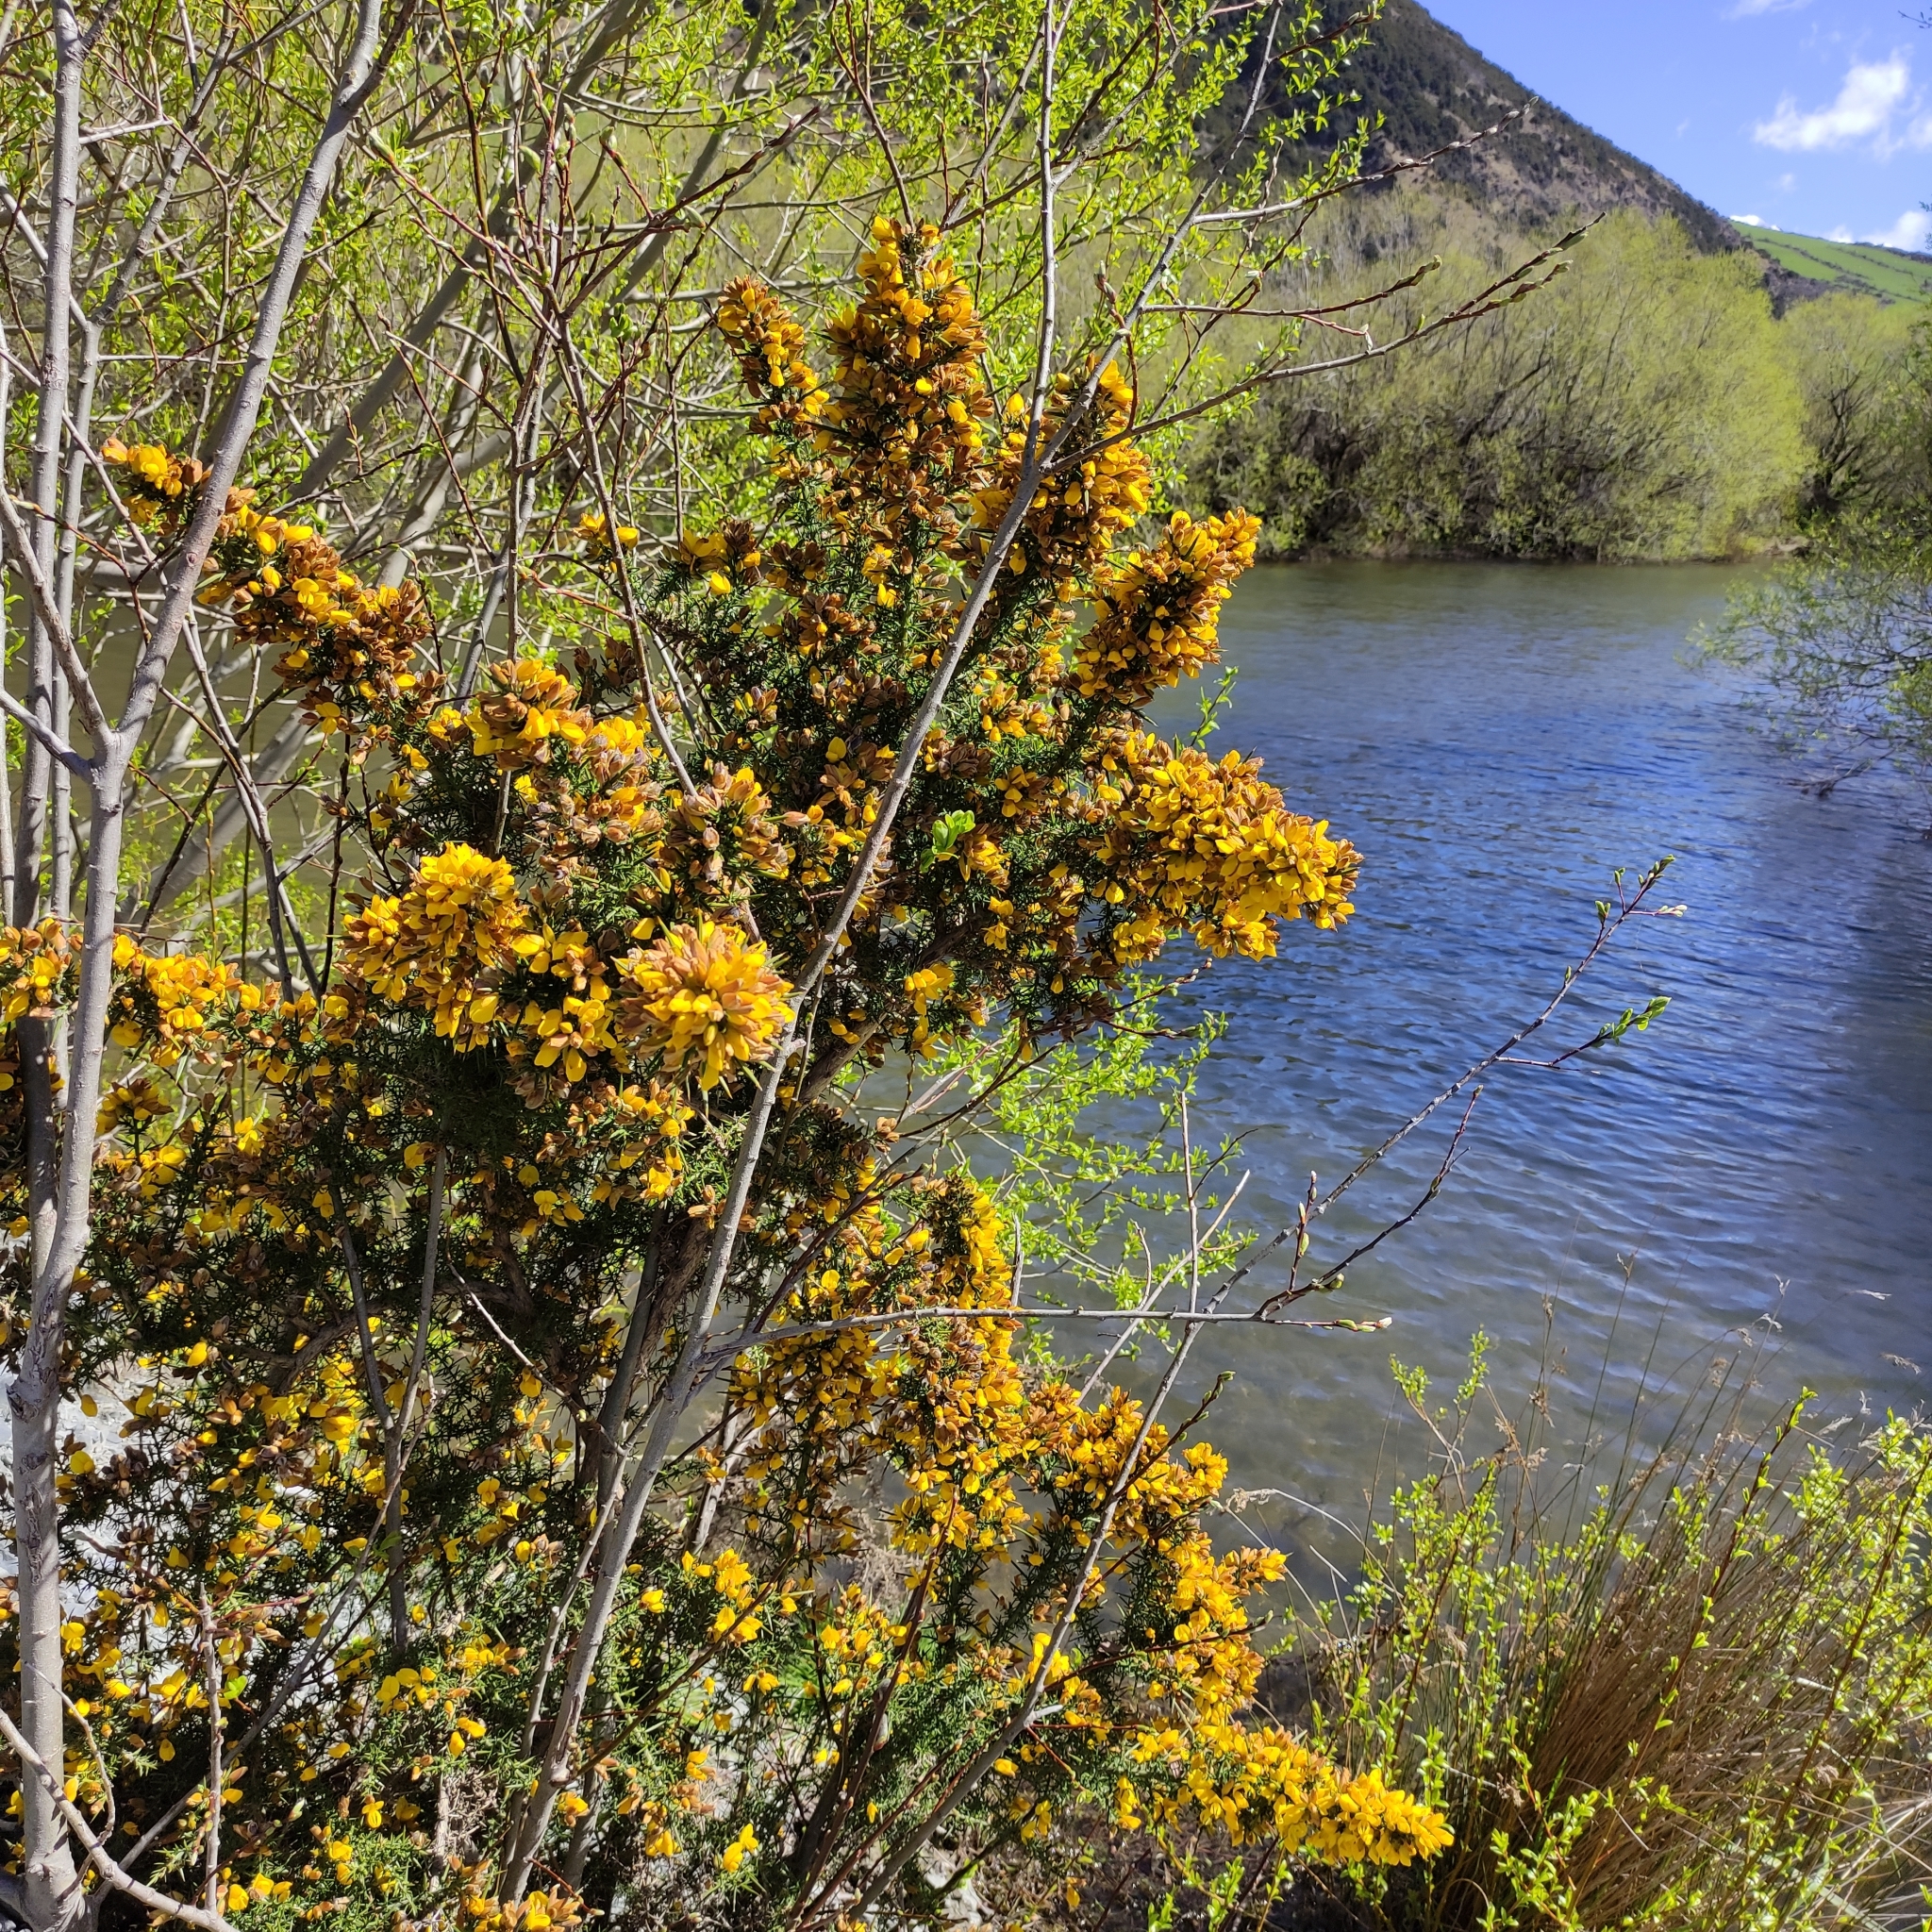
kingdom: Plantae
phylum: Tracheophyta
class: Magnoliopsida
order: Fabales
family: Fabaceae
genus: Ulex
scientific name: Ulex europaeus
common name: Common gorse
